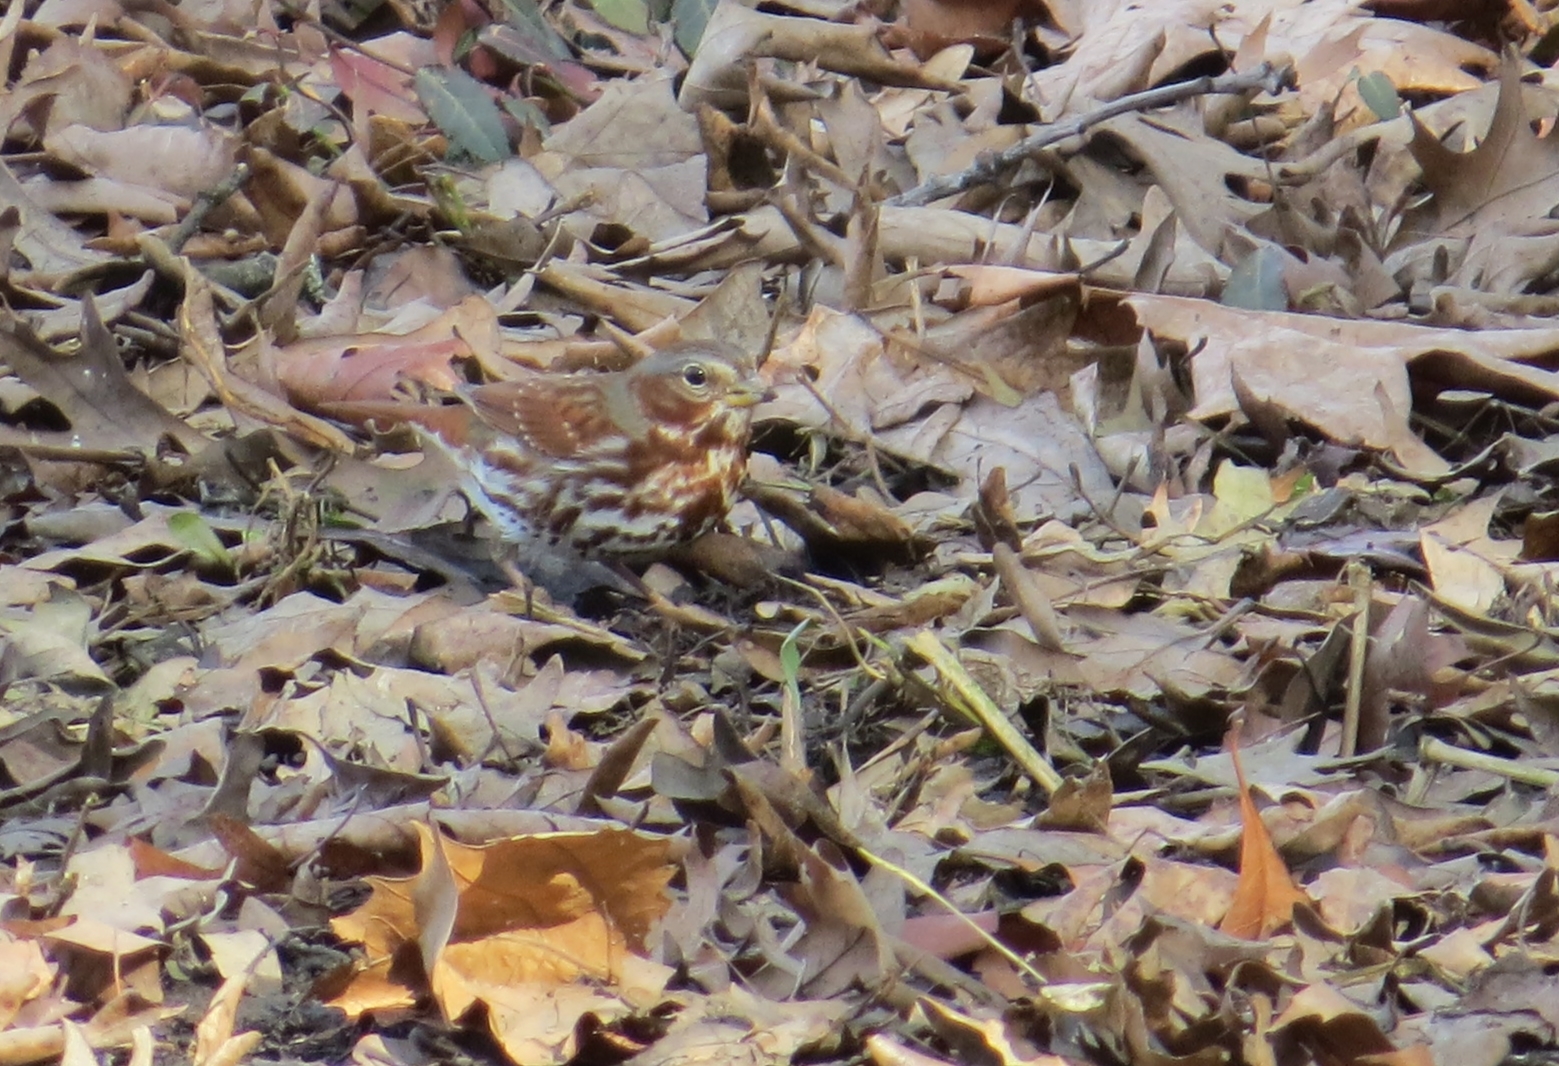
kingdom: Animalia
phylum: Chordata
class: Aves
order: Passeriformes
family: Passerellidae
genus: Passerella
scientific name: Passerella iliaca
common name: Fox sparrow
